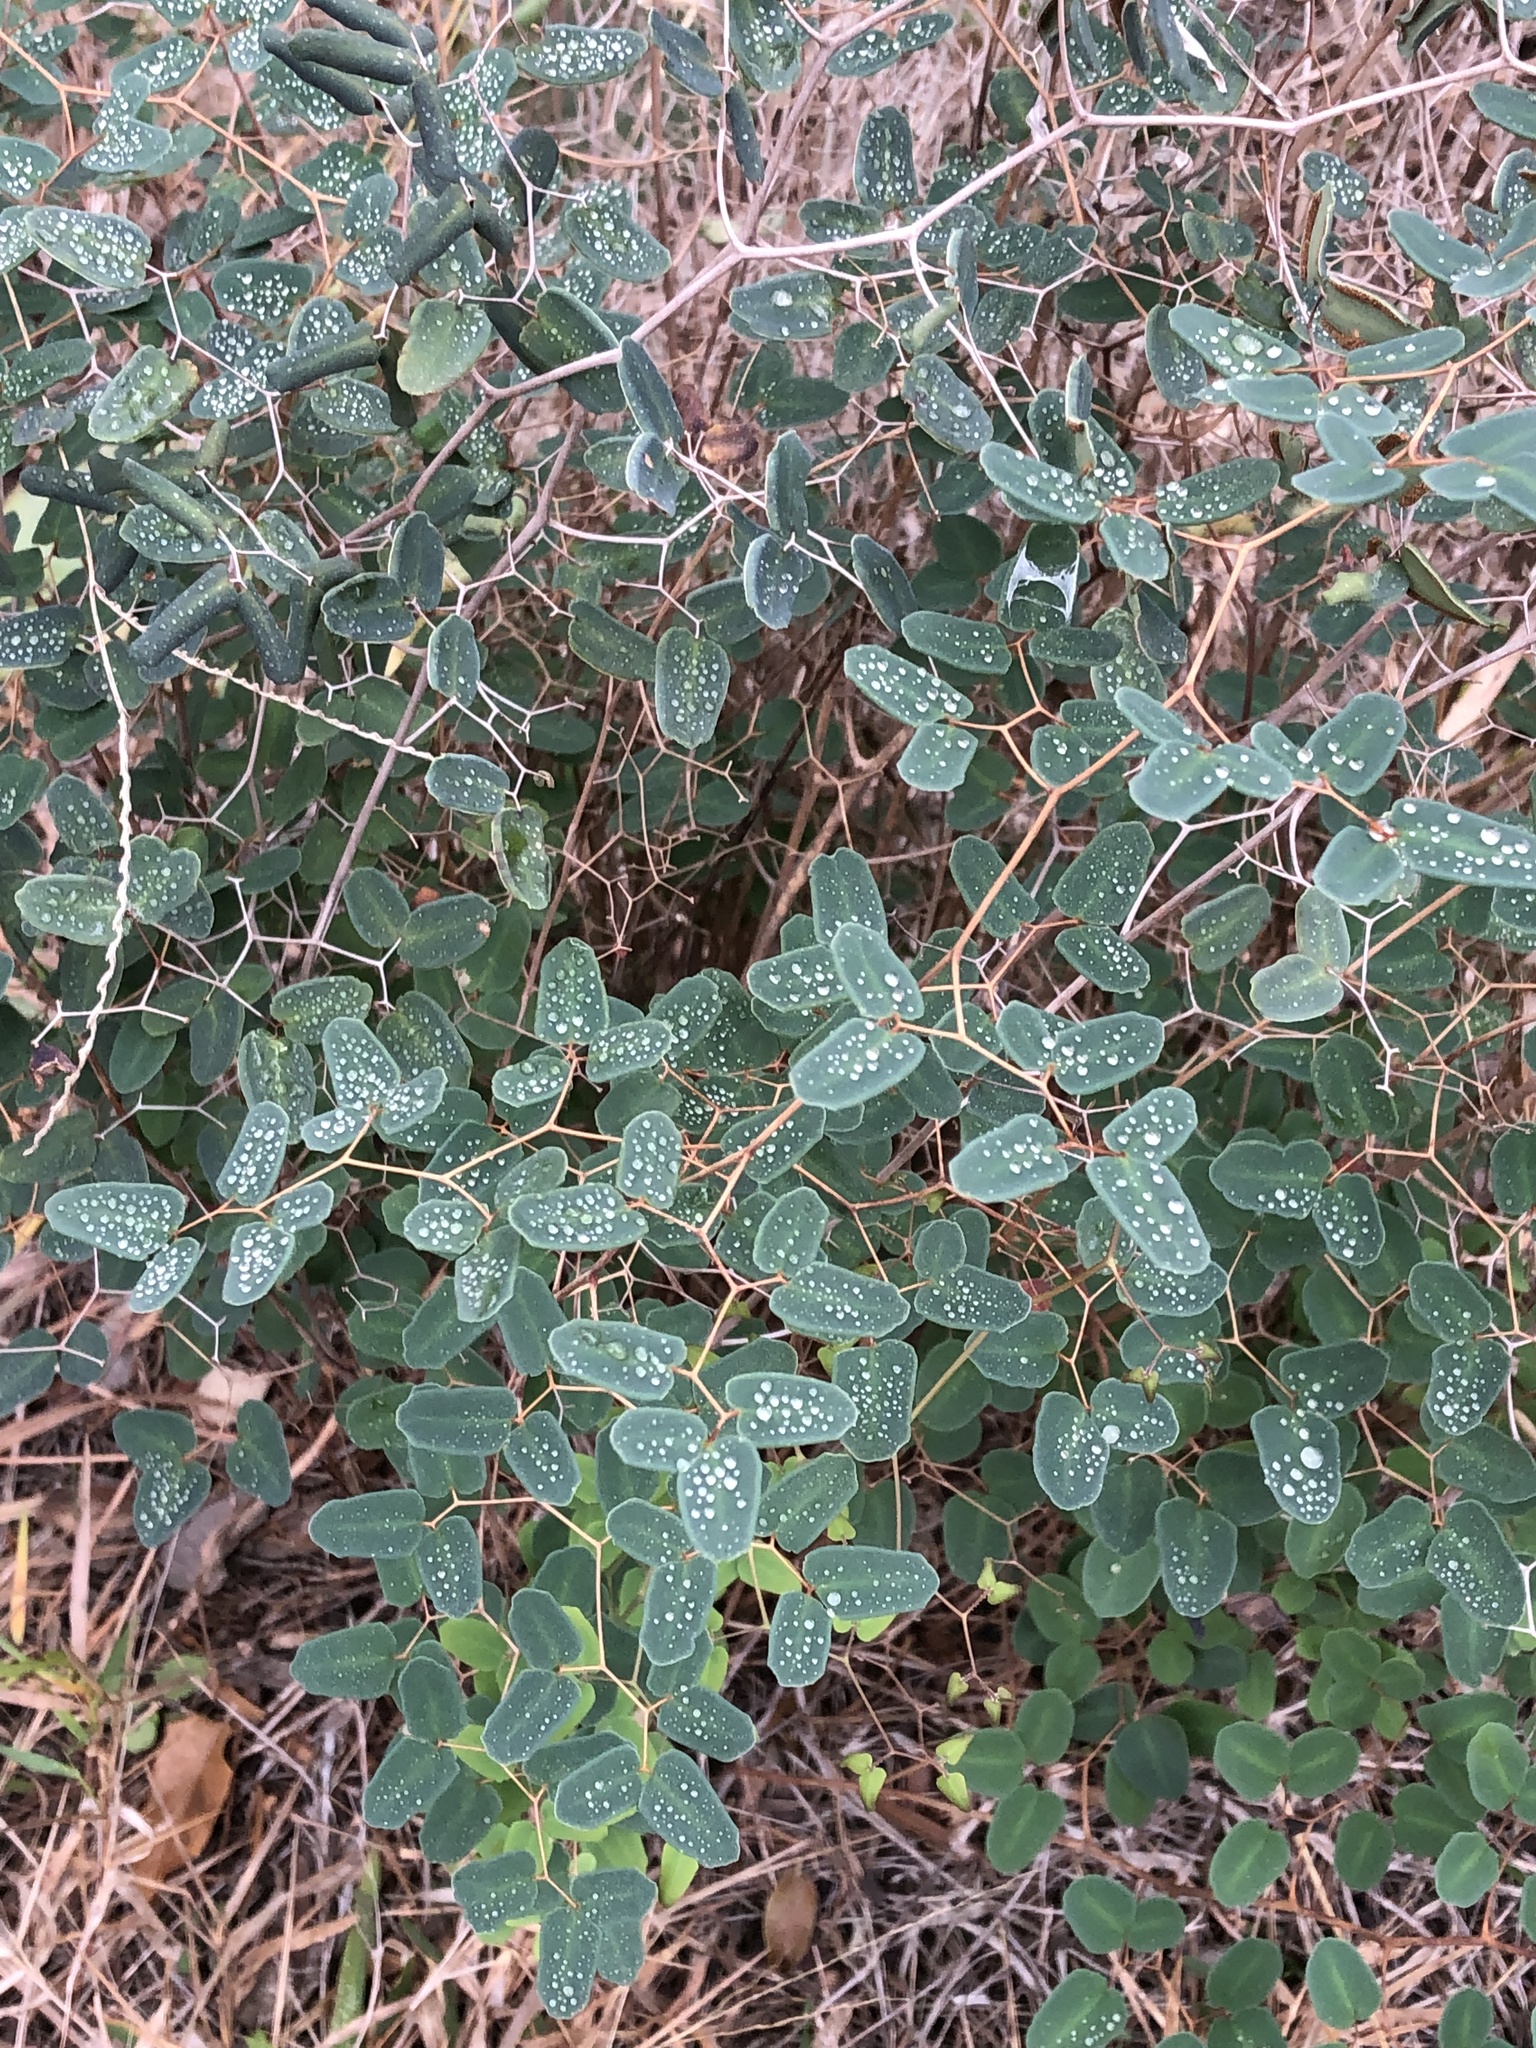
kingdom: Plantae
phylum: Tracheophyta
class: Polypodiopsida
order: Polypodiales
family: Pteridaceae
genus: Pellaea
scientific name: Pellaea ovata
